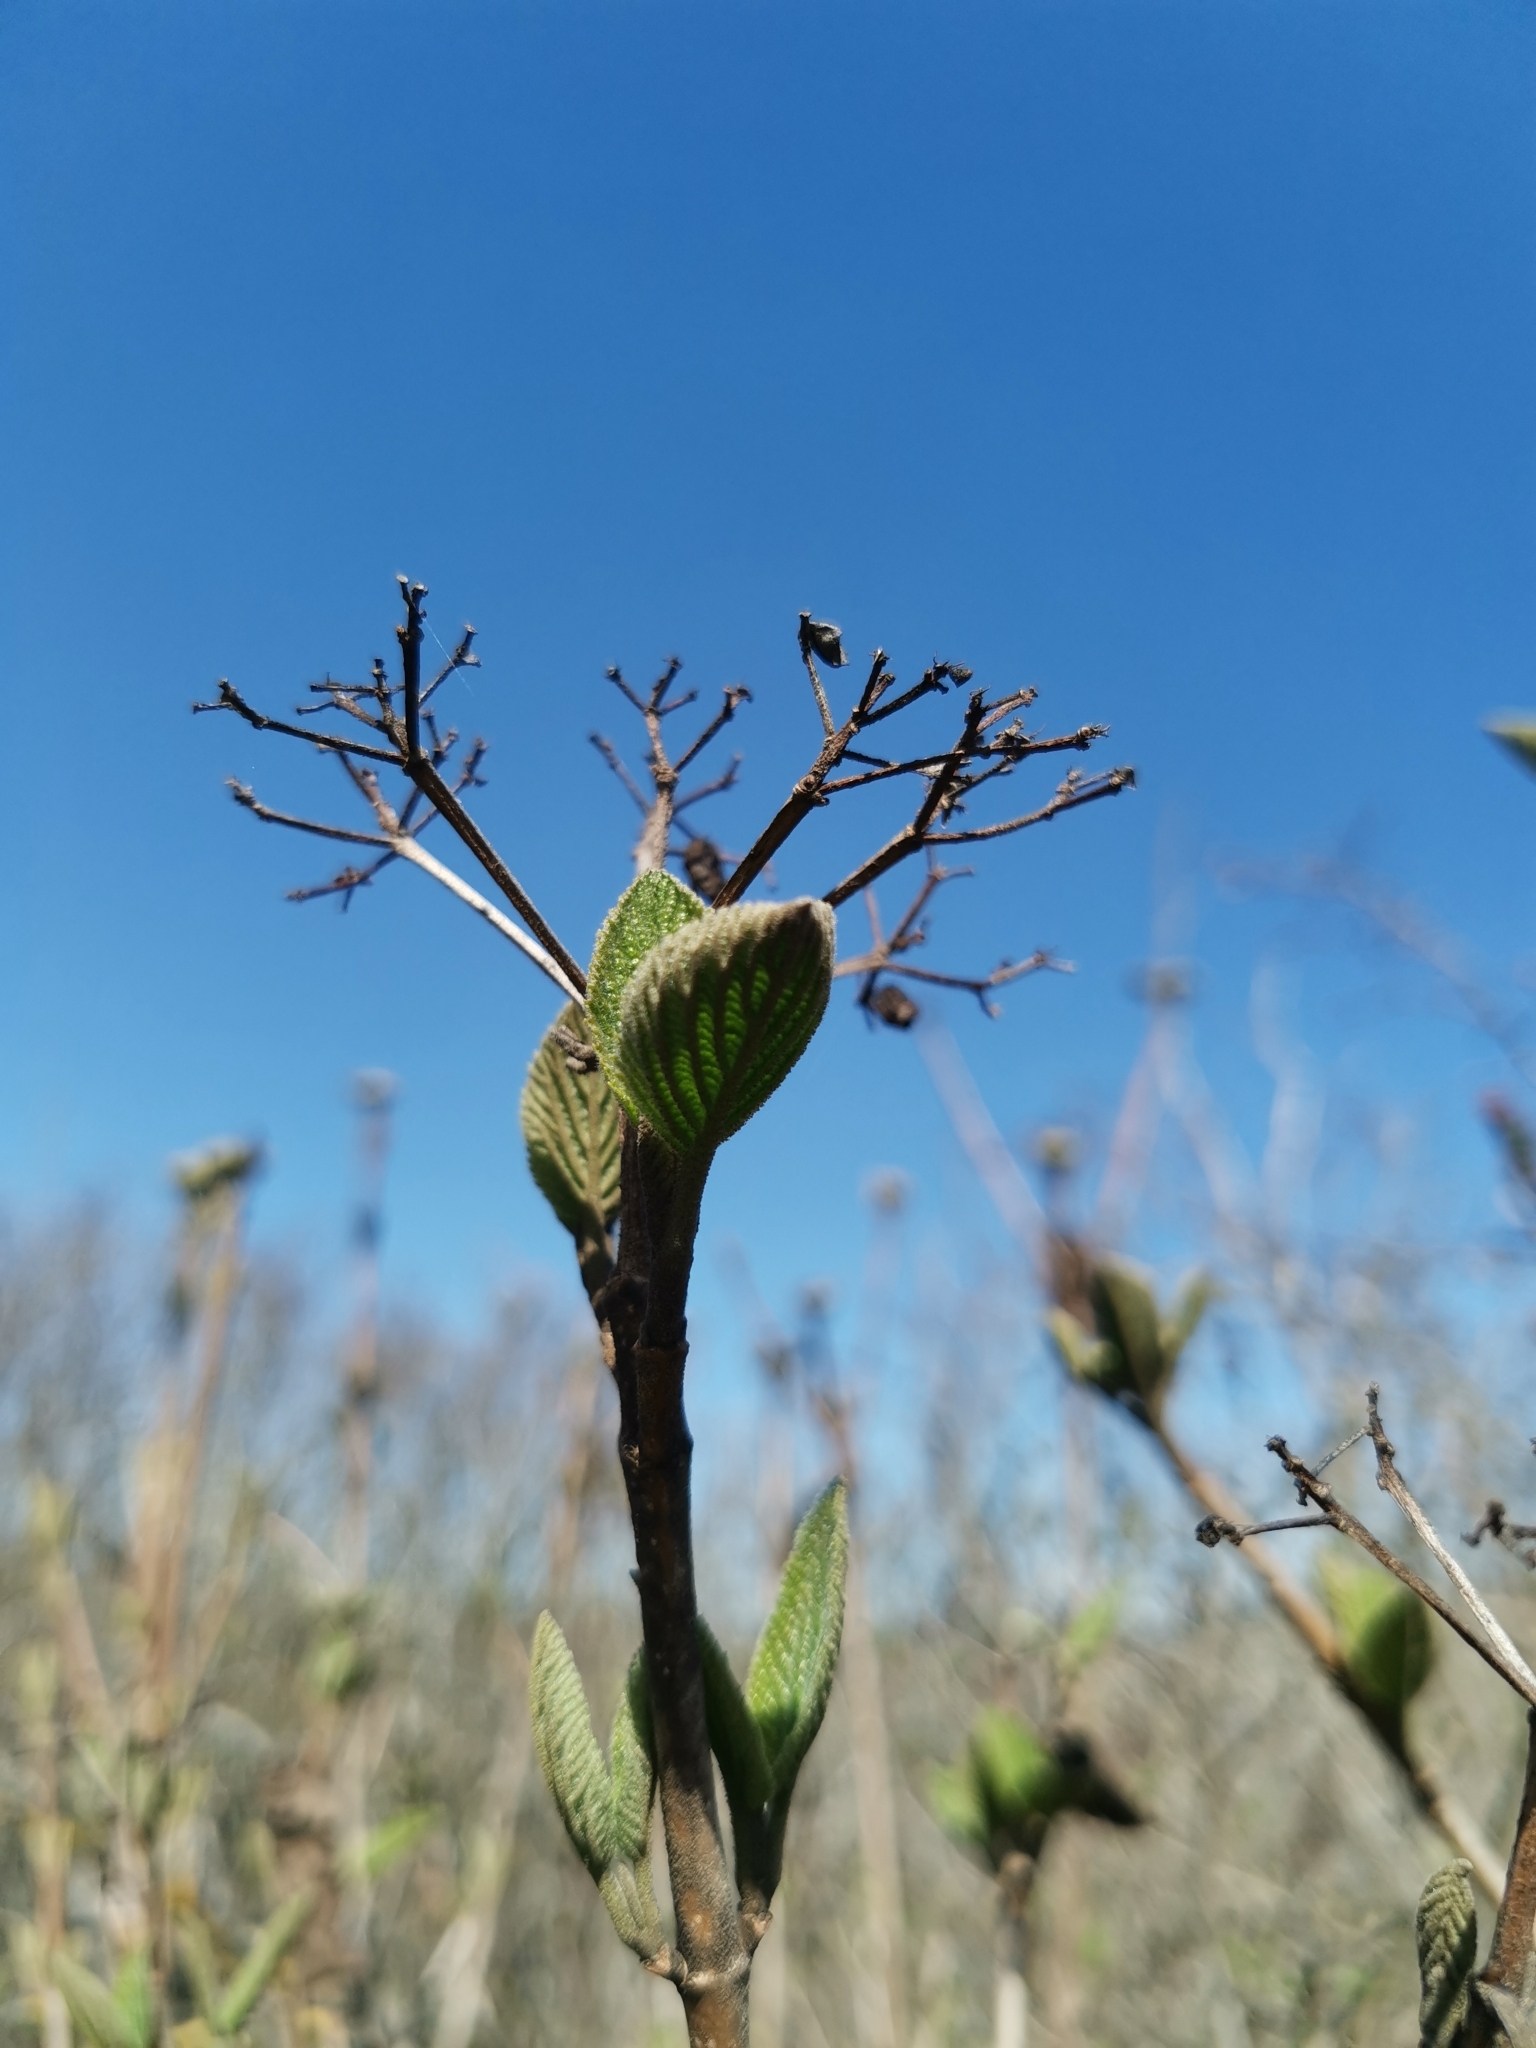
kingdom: Plantae
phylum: Tracheophyta
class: Magnoliopsida
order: Dipsacales
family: Viburnaceae
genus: Viburnum
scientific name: Viburnum lantana
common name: Wayfaring tree
